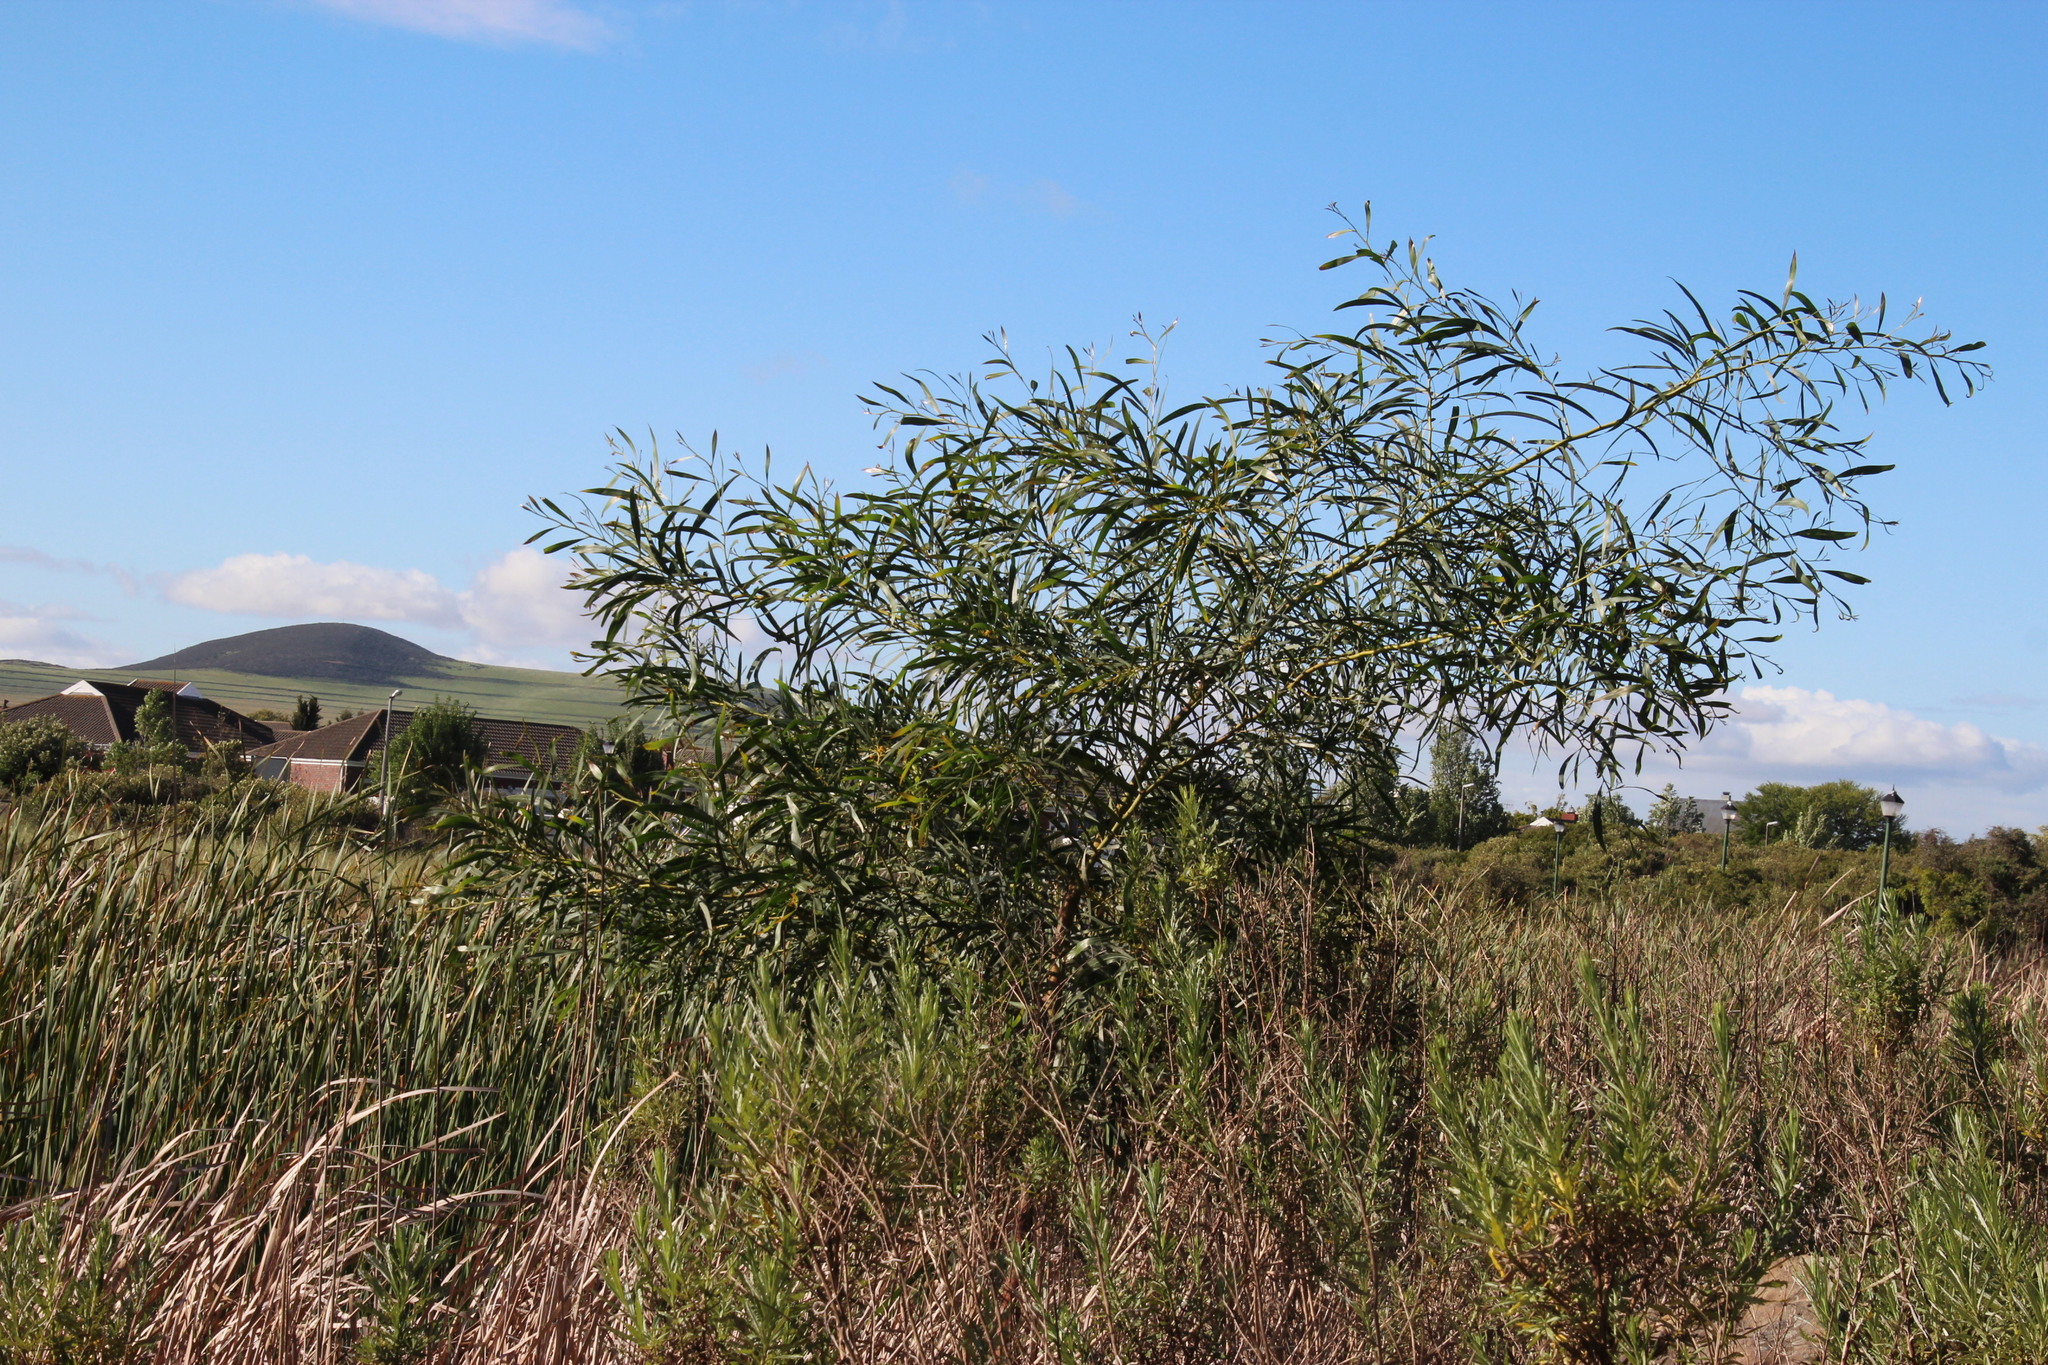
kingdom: Plantae
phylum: Tracheophyta
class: Magnoliopsida
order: Fabales
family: Fabaceae
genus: Acacia
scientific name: Acacia saligna
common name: Orange wattle
